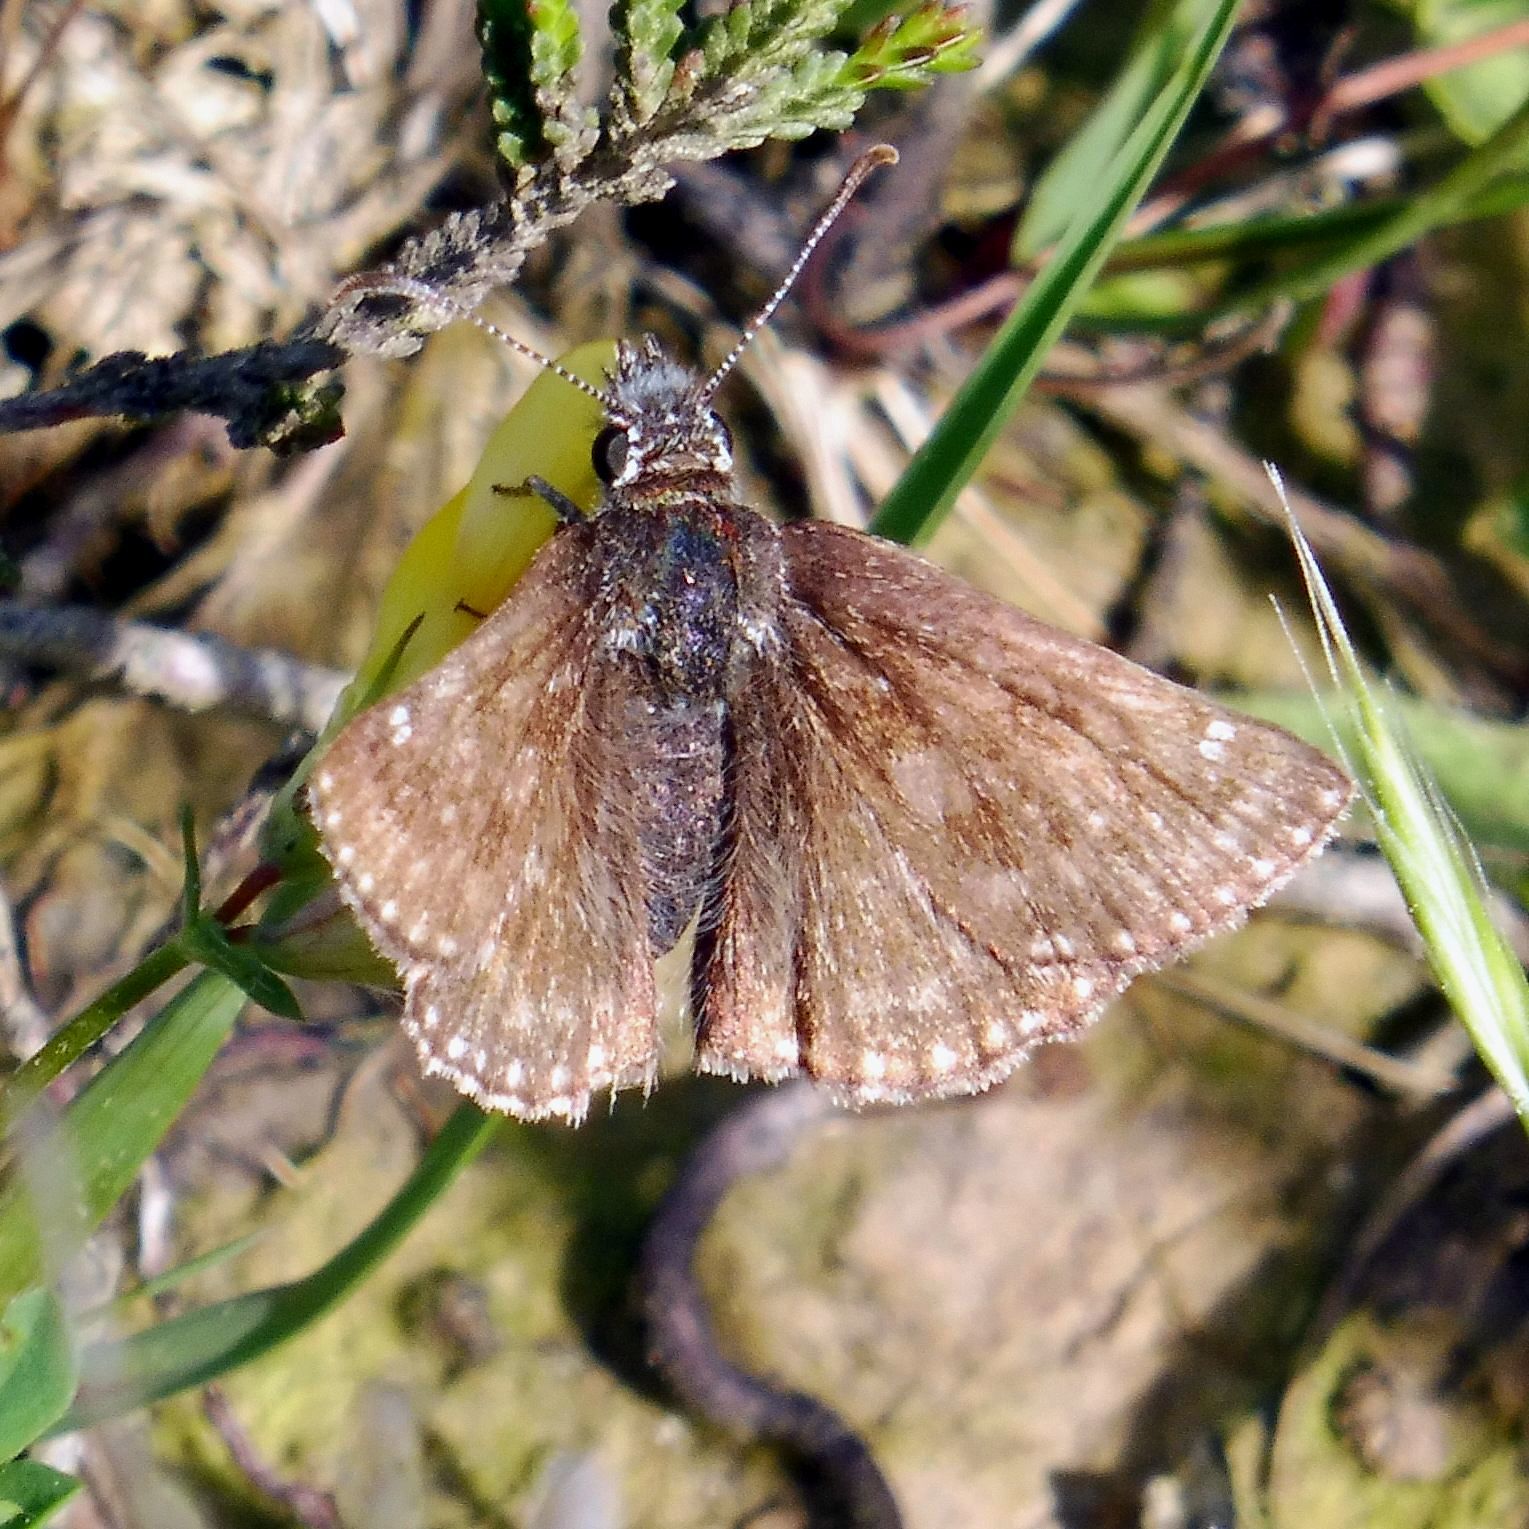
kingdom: Animalia
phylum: Arthropoda
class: Insecta
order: Lepidoptera
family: Hesperiidae
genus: Erynnis
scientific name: Erynnis tages
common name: Dingy skipper
